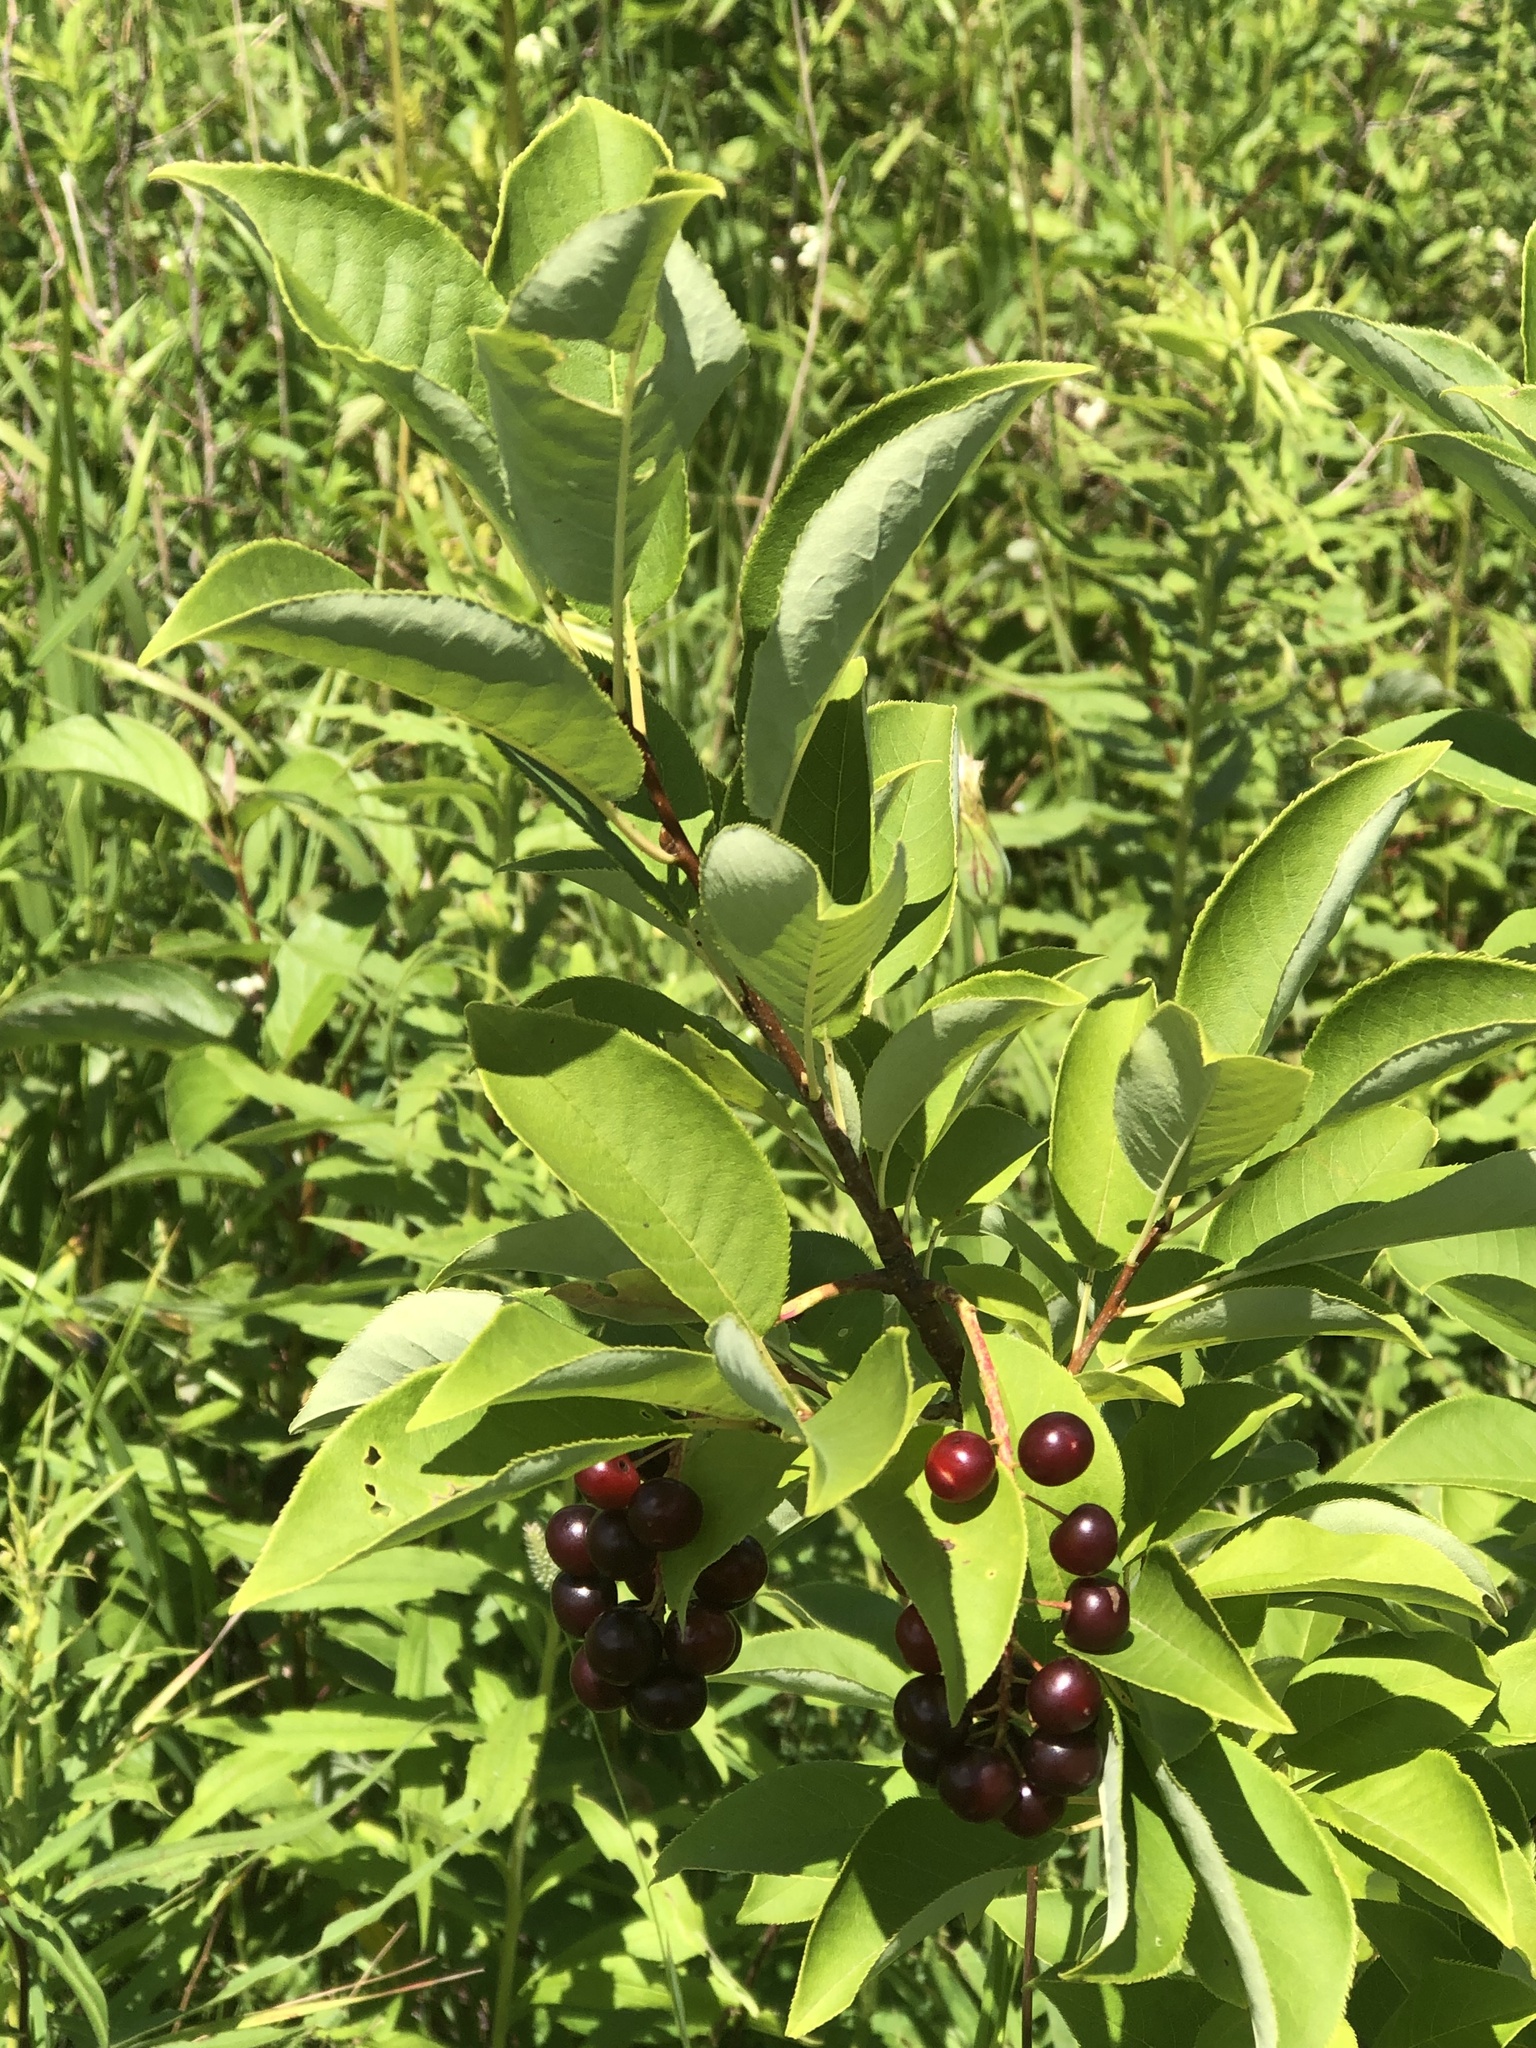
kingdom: Plantae
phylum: Tracheophyta
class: Magnoliopsida
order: Rosales
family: Rosaceae
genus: Prunus
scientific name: Prunus virginiana
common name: Chokecherry
